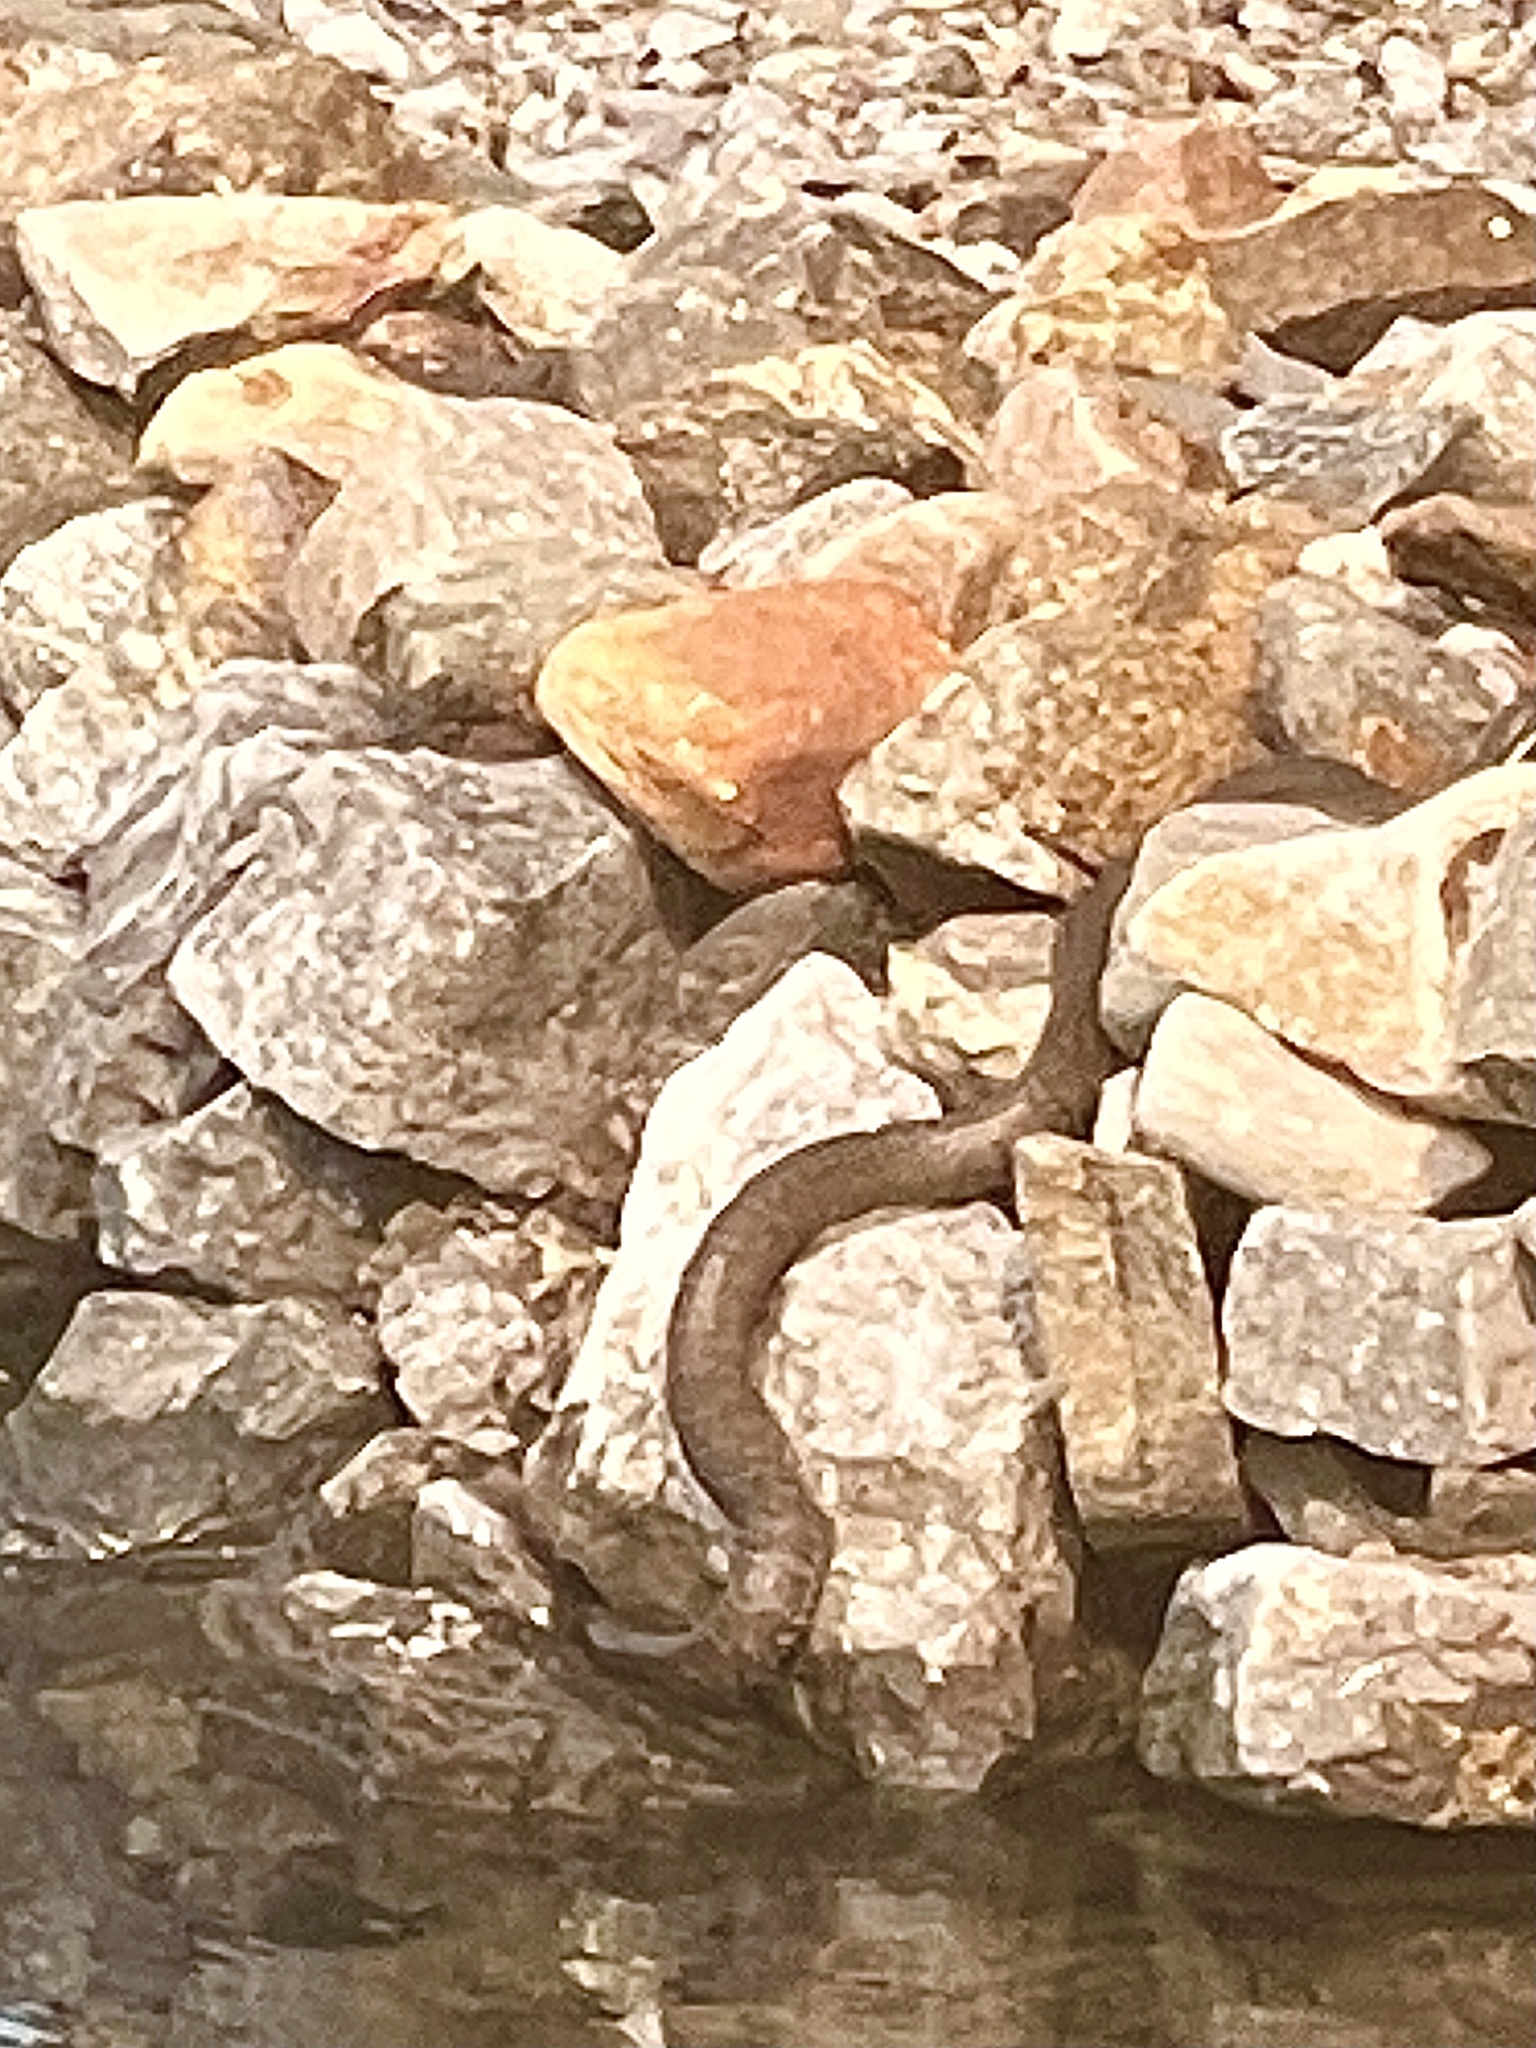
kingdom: Animalia
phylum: Chordata
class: Squamata
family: Colubridae
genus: Nerodia
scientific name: Nerodia sipedon
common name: Northern water snake
